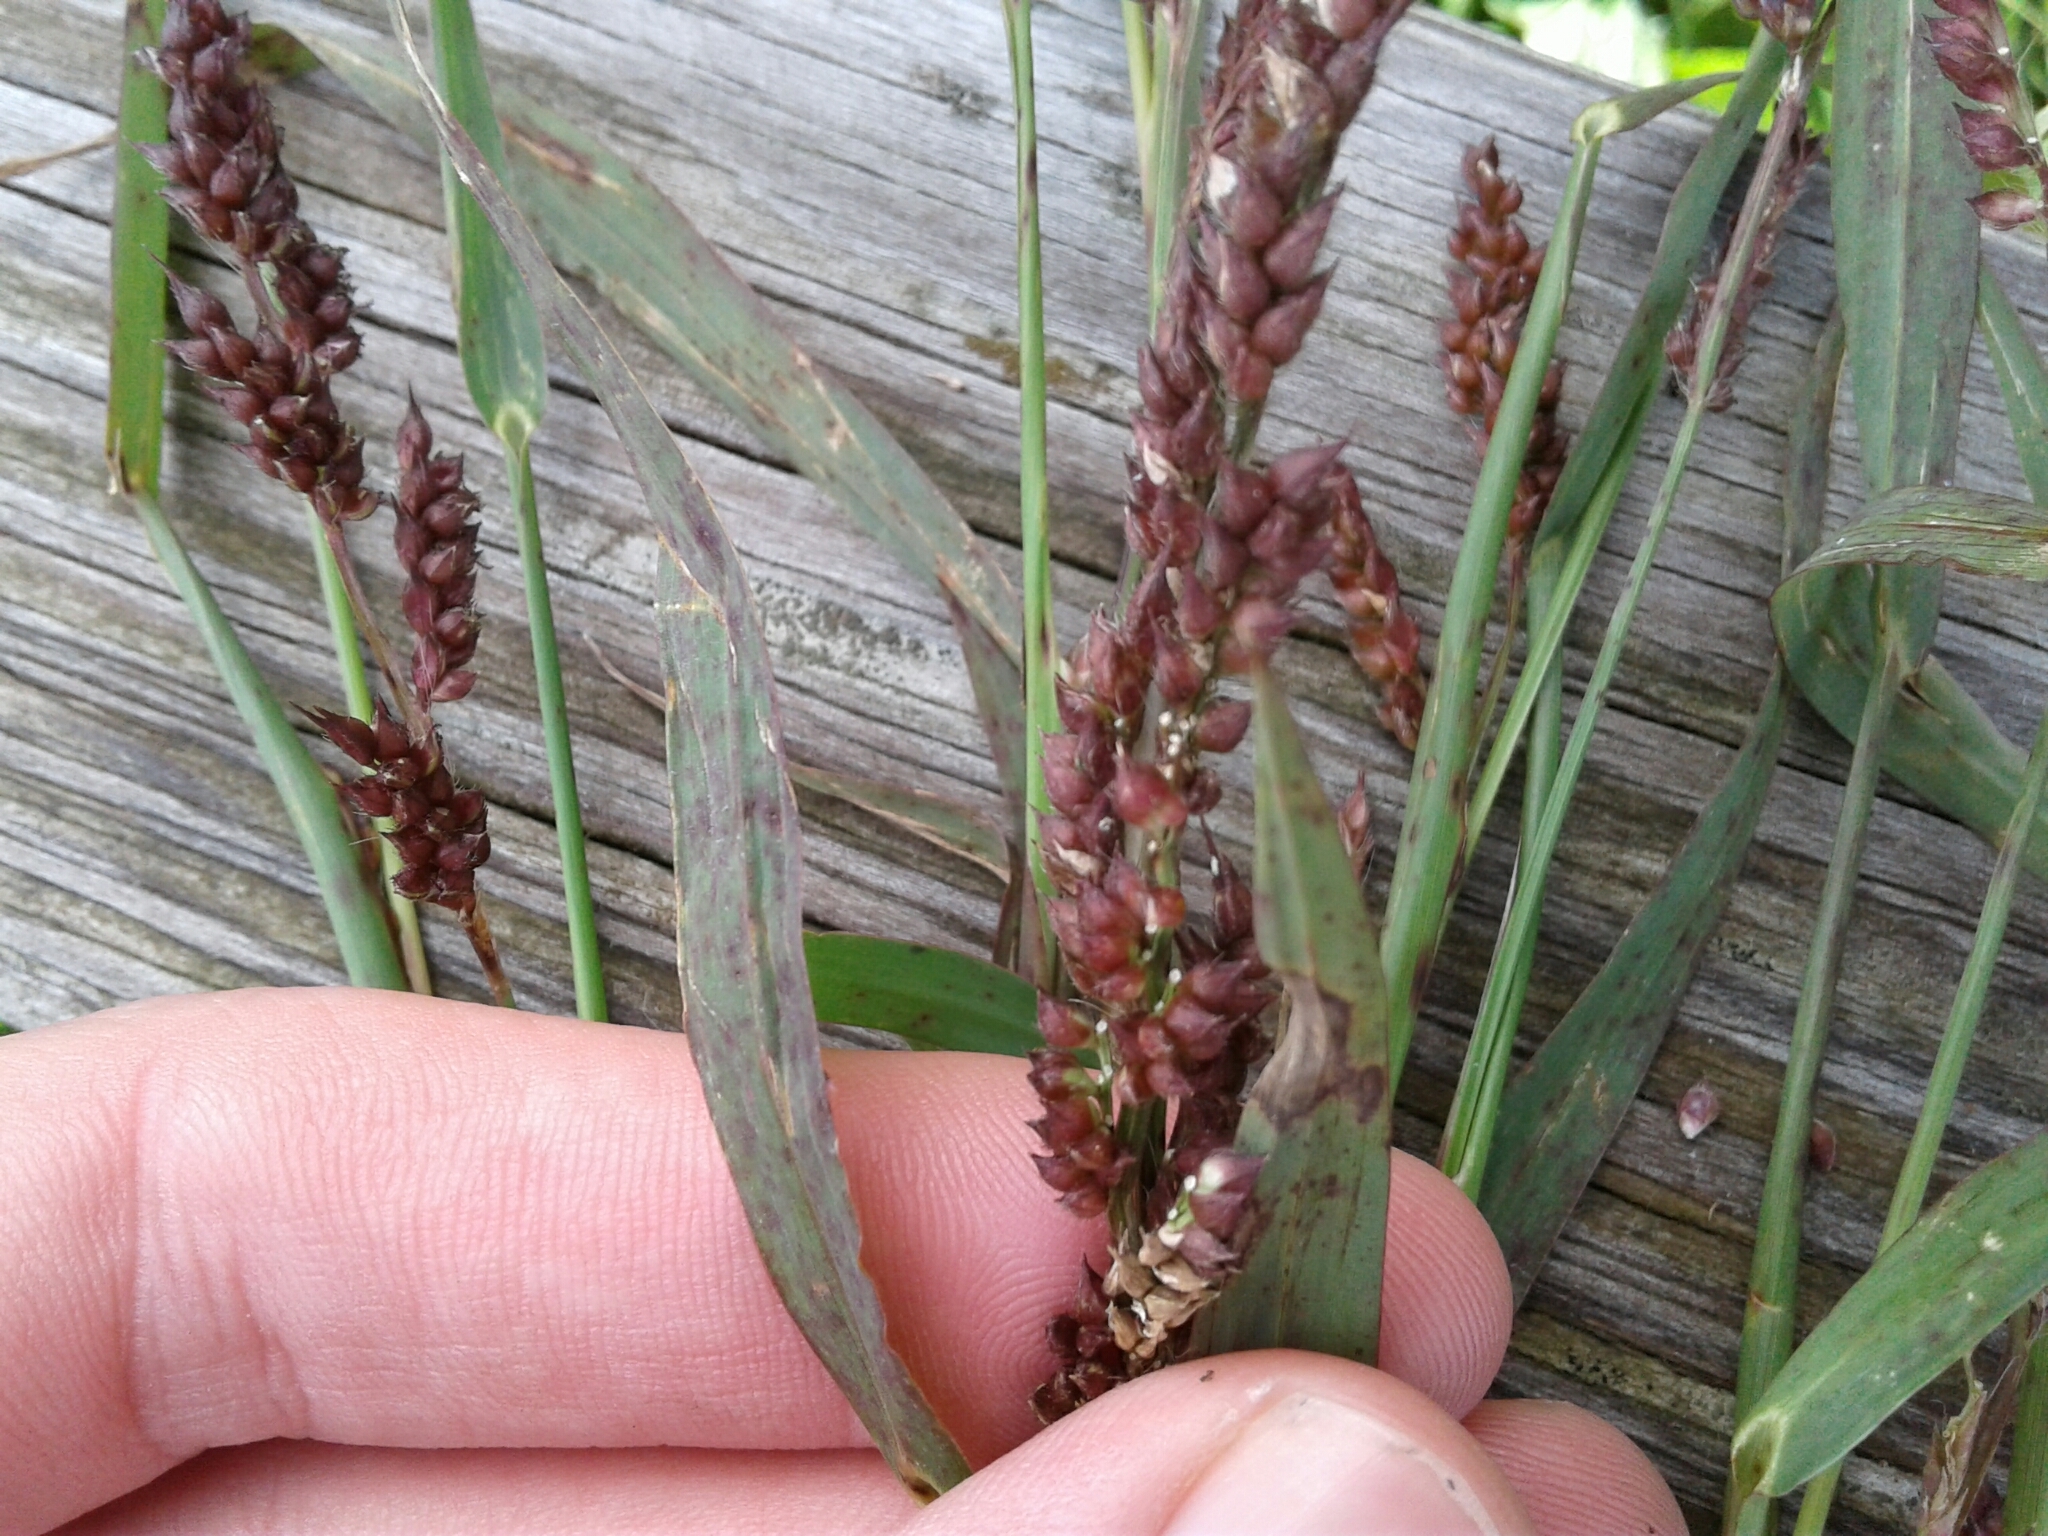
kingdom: Plantae
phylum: Tracheophyta
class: Liliopsida
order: Poales
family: Poaceae
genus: Echinochloa
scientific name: Echinochloa crus-galli
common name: Cockspur
